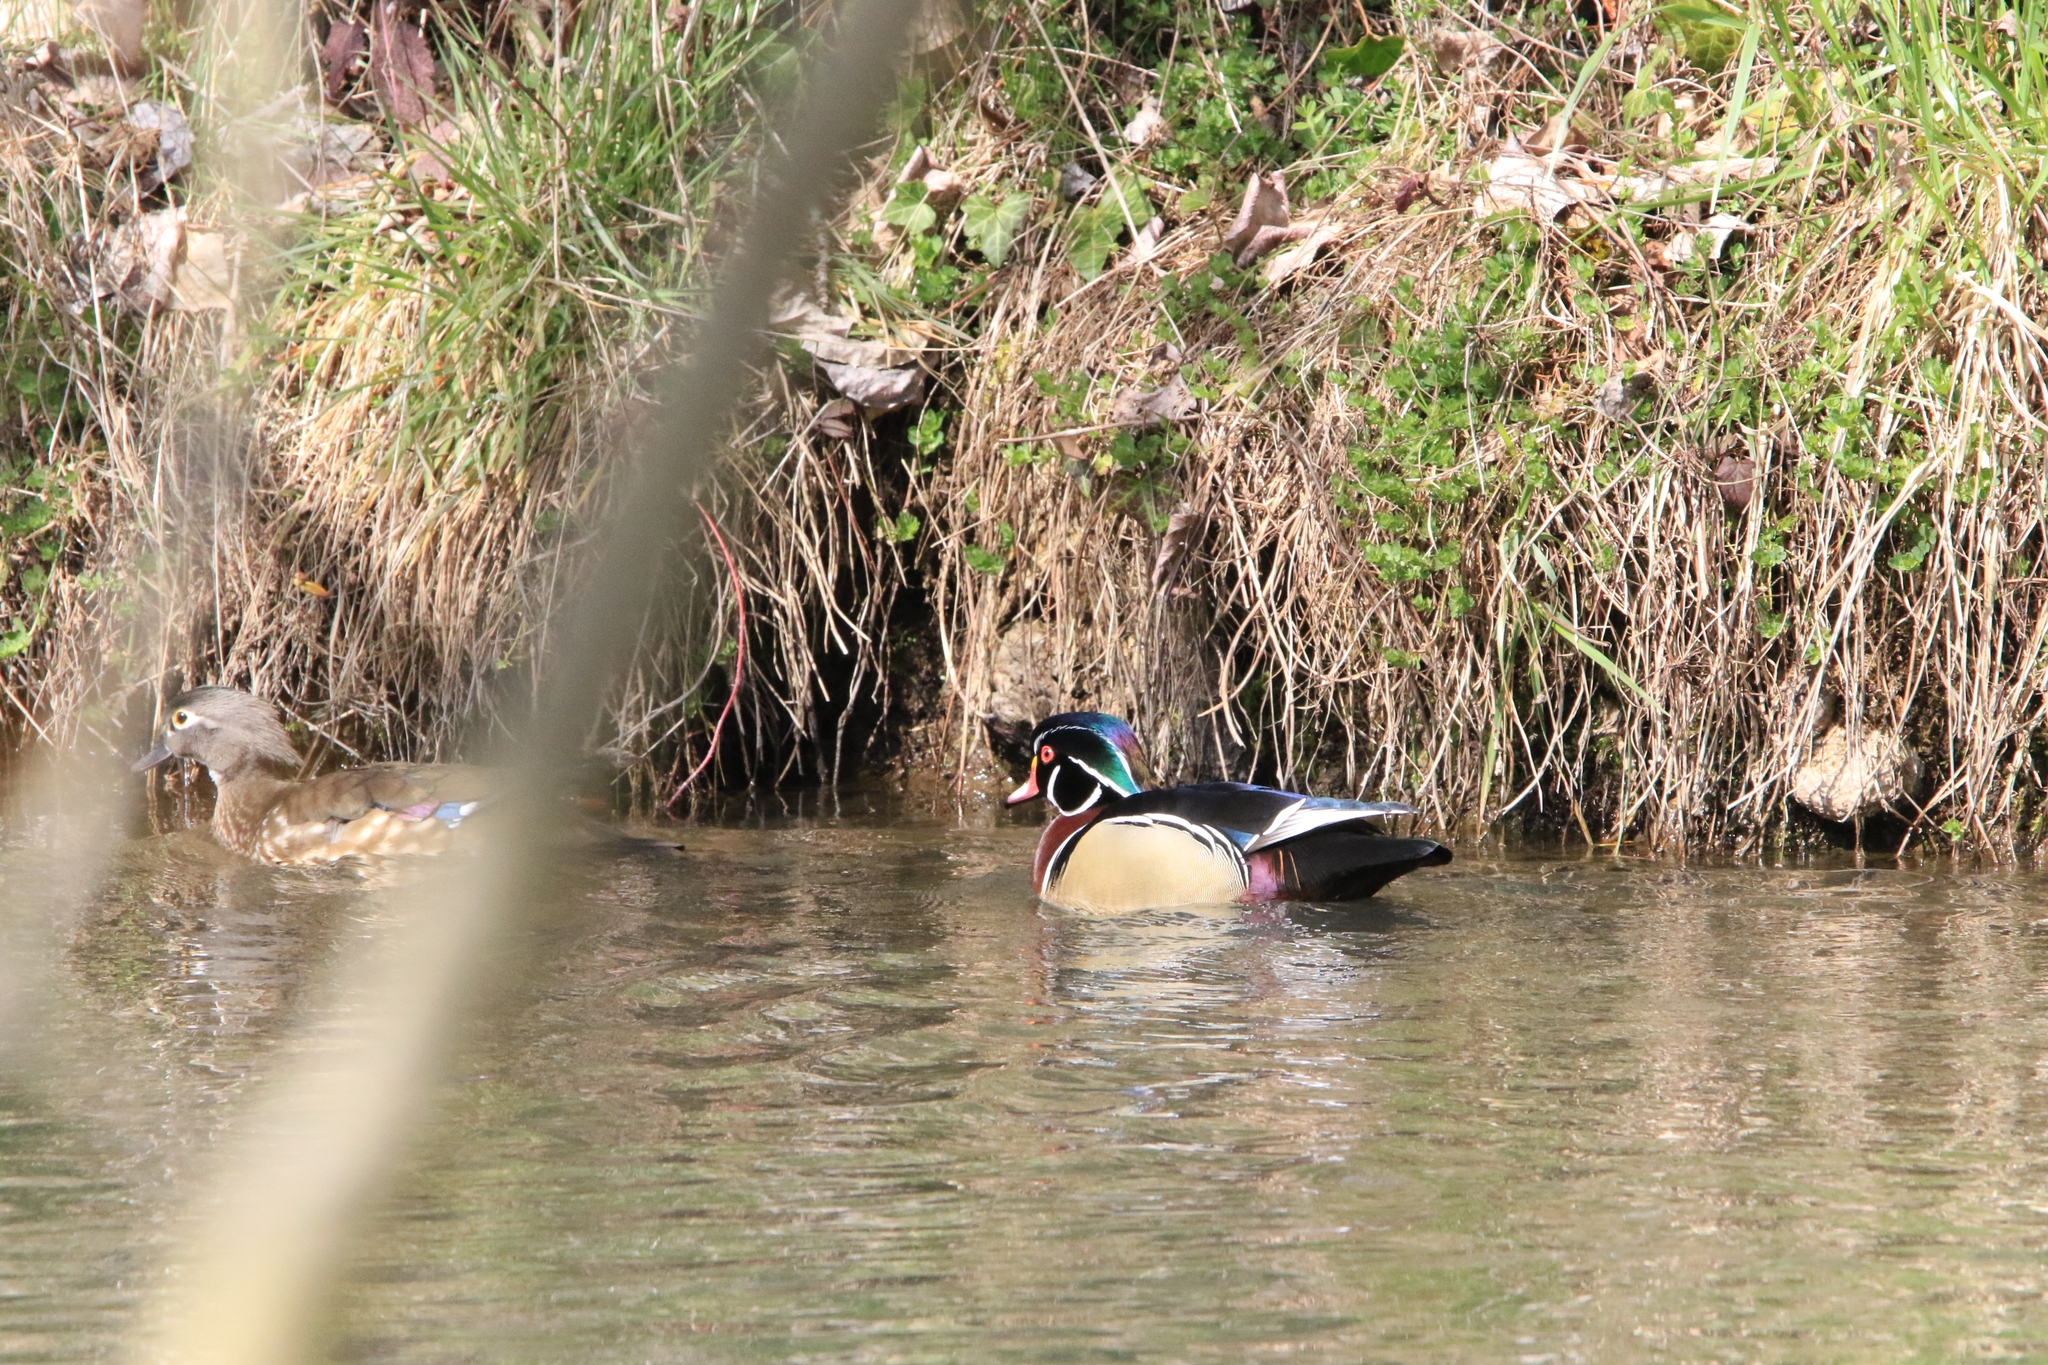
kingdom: Animalia
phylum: Chordata
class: Aves
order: Anseriformes
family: Anatidae
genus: Aix
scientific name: Aix sponsa
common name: Wood duck
